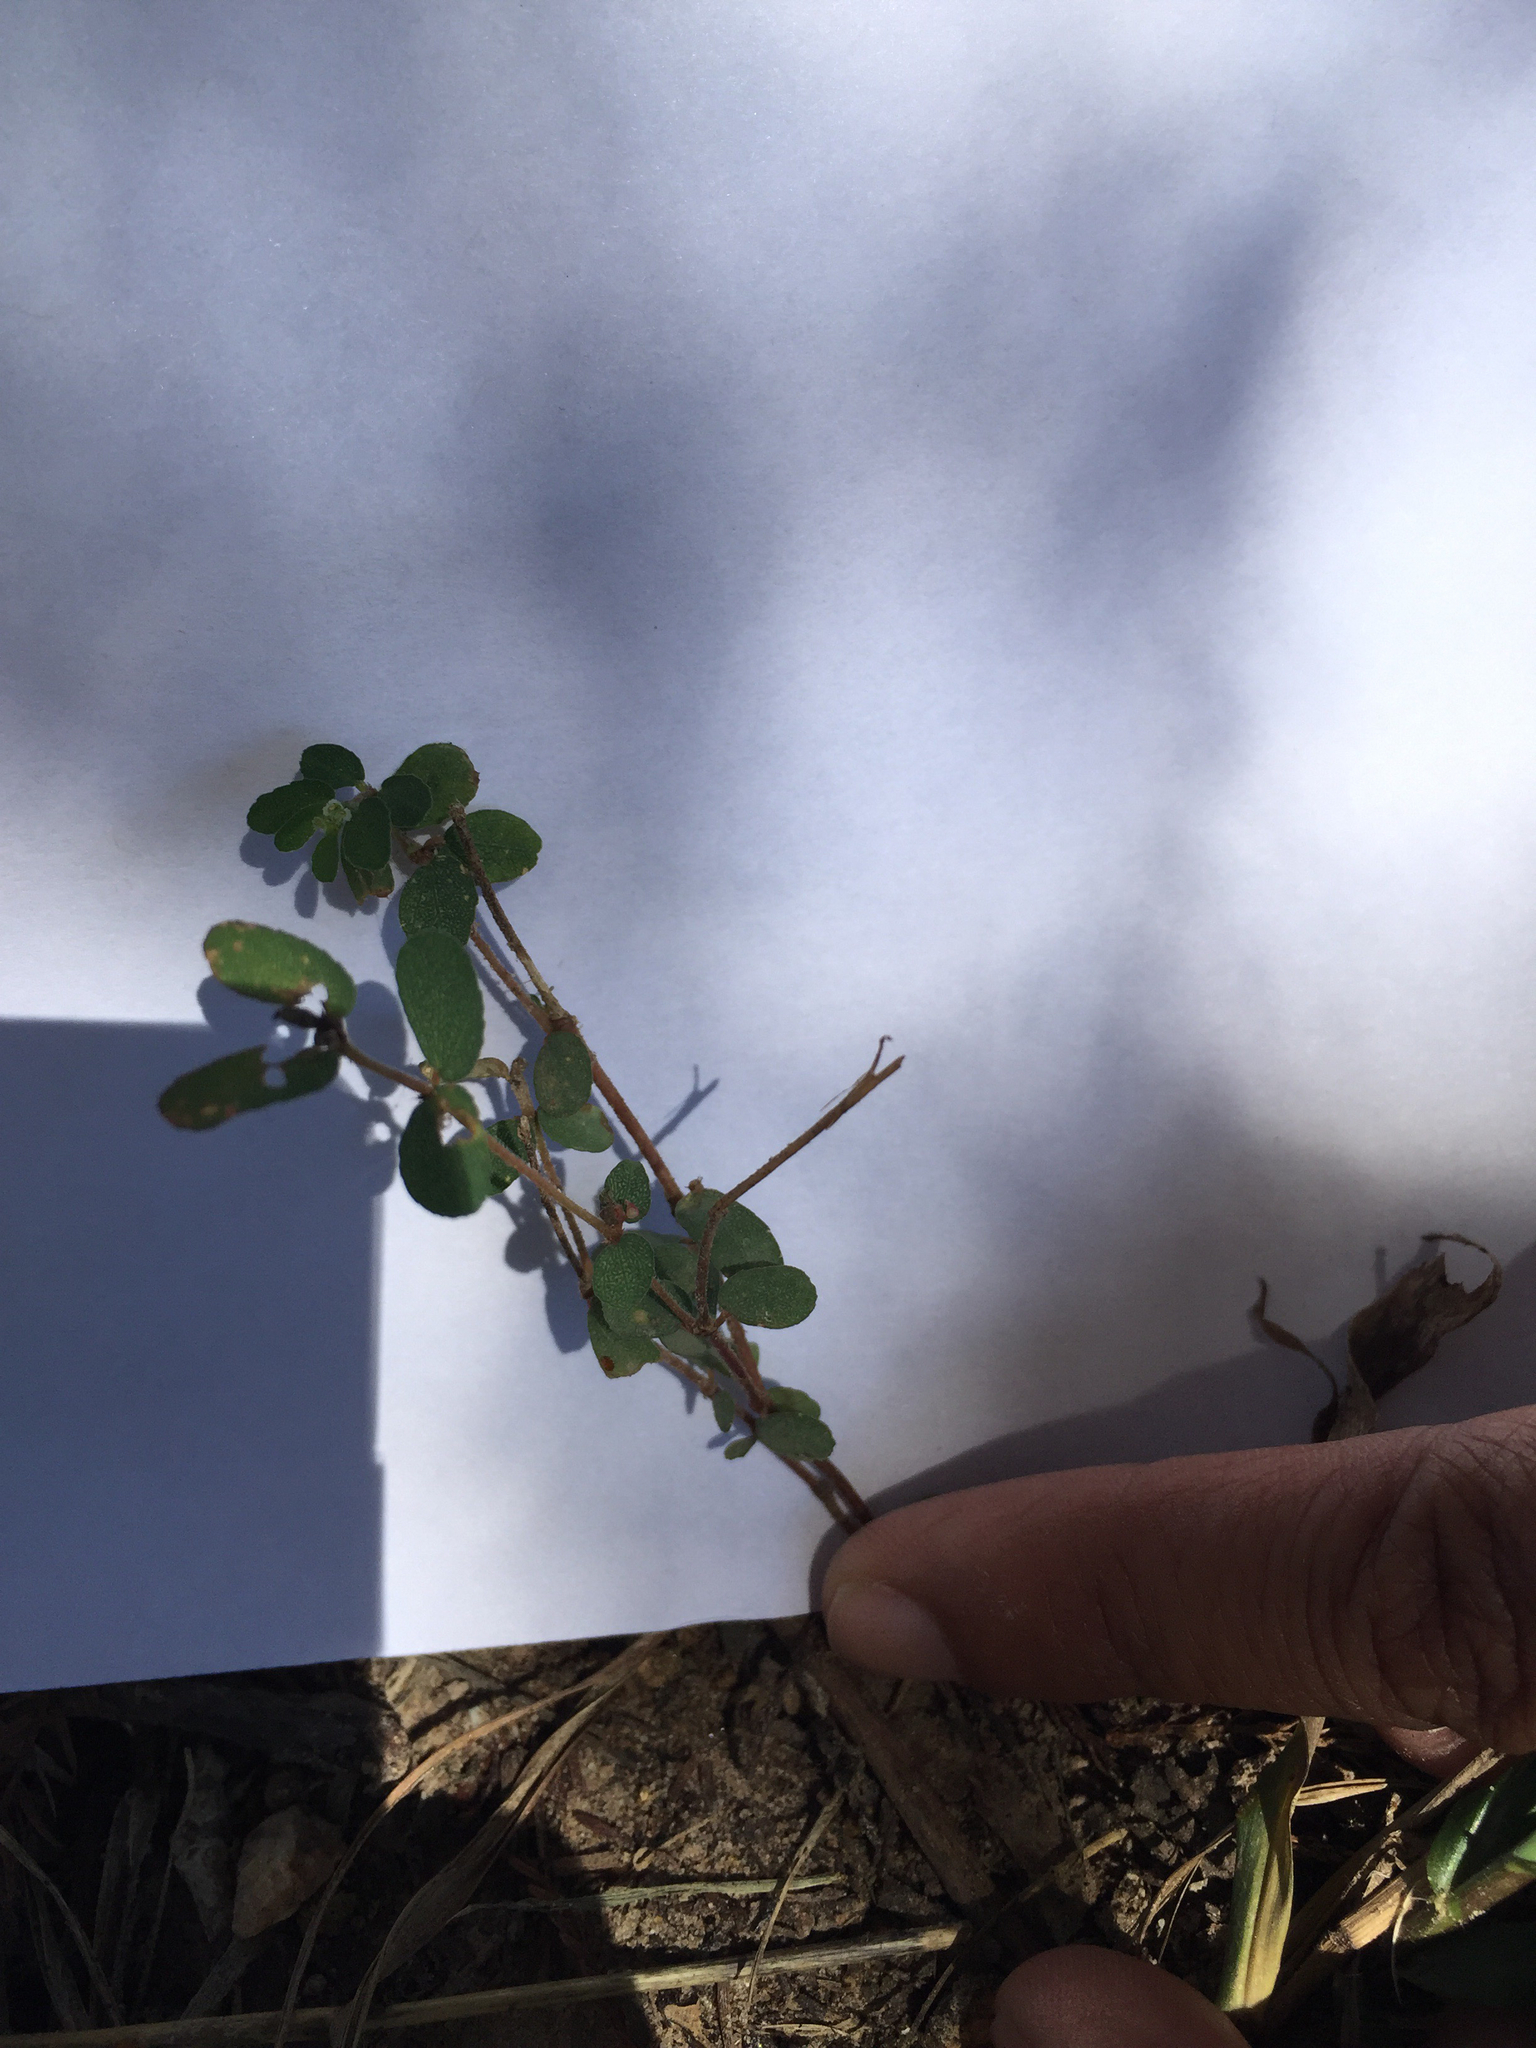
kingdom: Plantae
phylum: Tracheophyta
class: Magnoliopsida
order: Malpighiales
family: Euphorbiaceae
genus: Euphorbia
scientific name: Euphorbia maculata
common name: Spotted spurge
